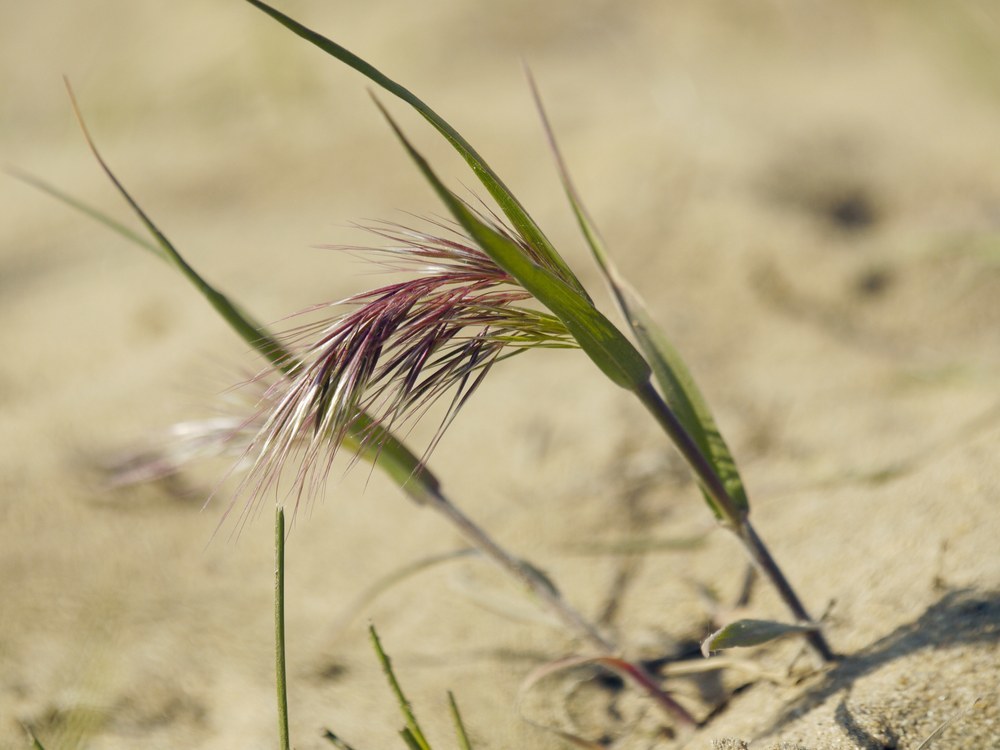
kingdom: Plantae
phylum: Tracheophyta
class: Liliopsida
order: Poales
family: Poaceae
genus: Bromus
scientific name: Bromus tectorum
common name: Cheatgrass
